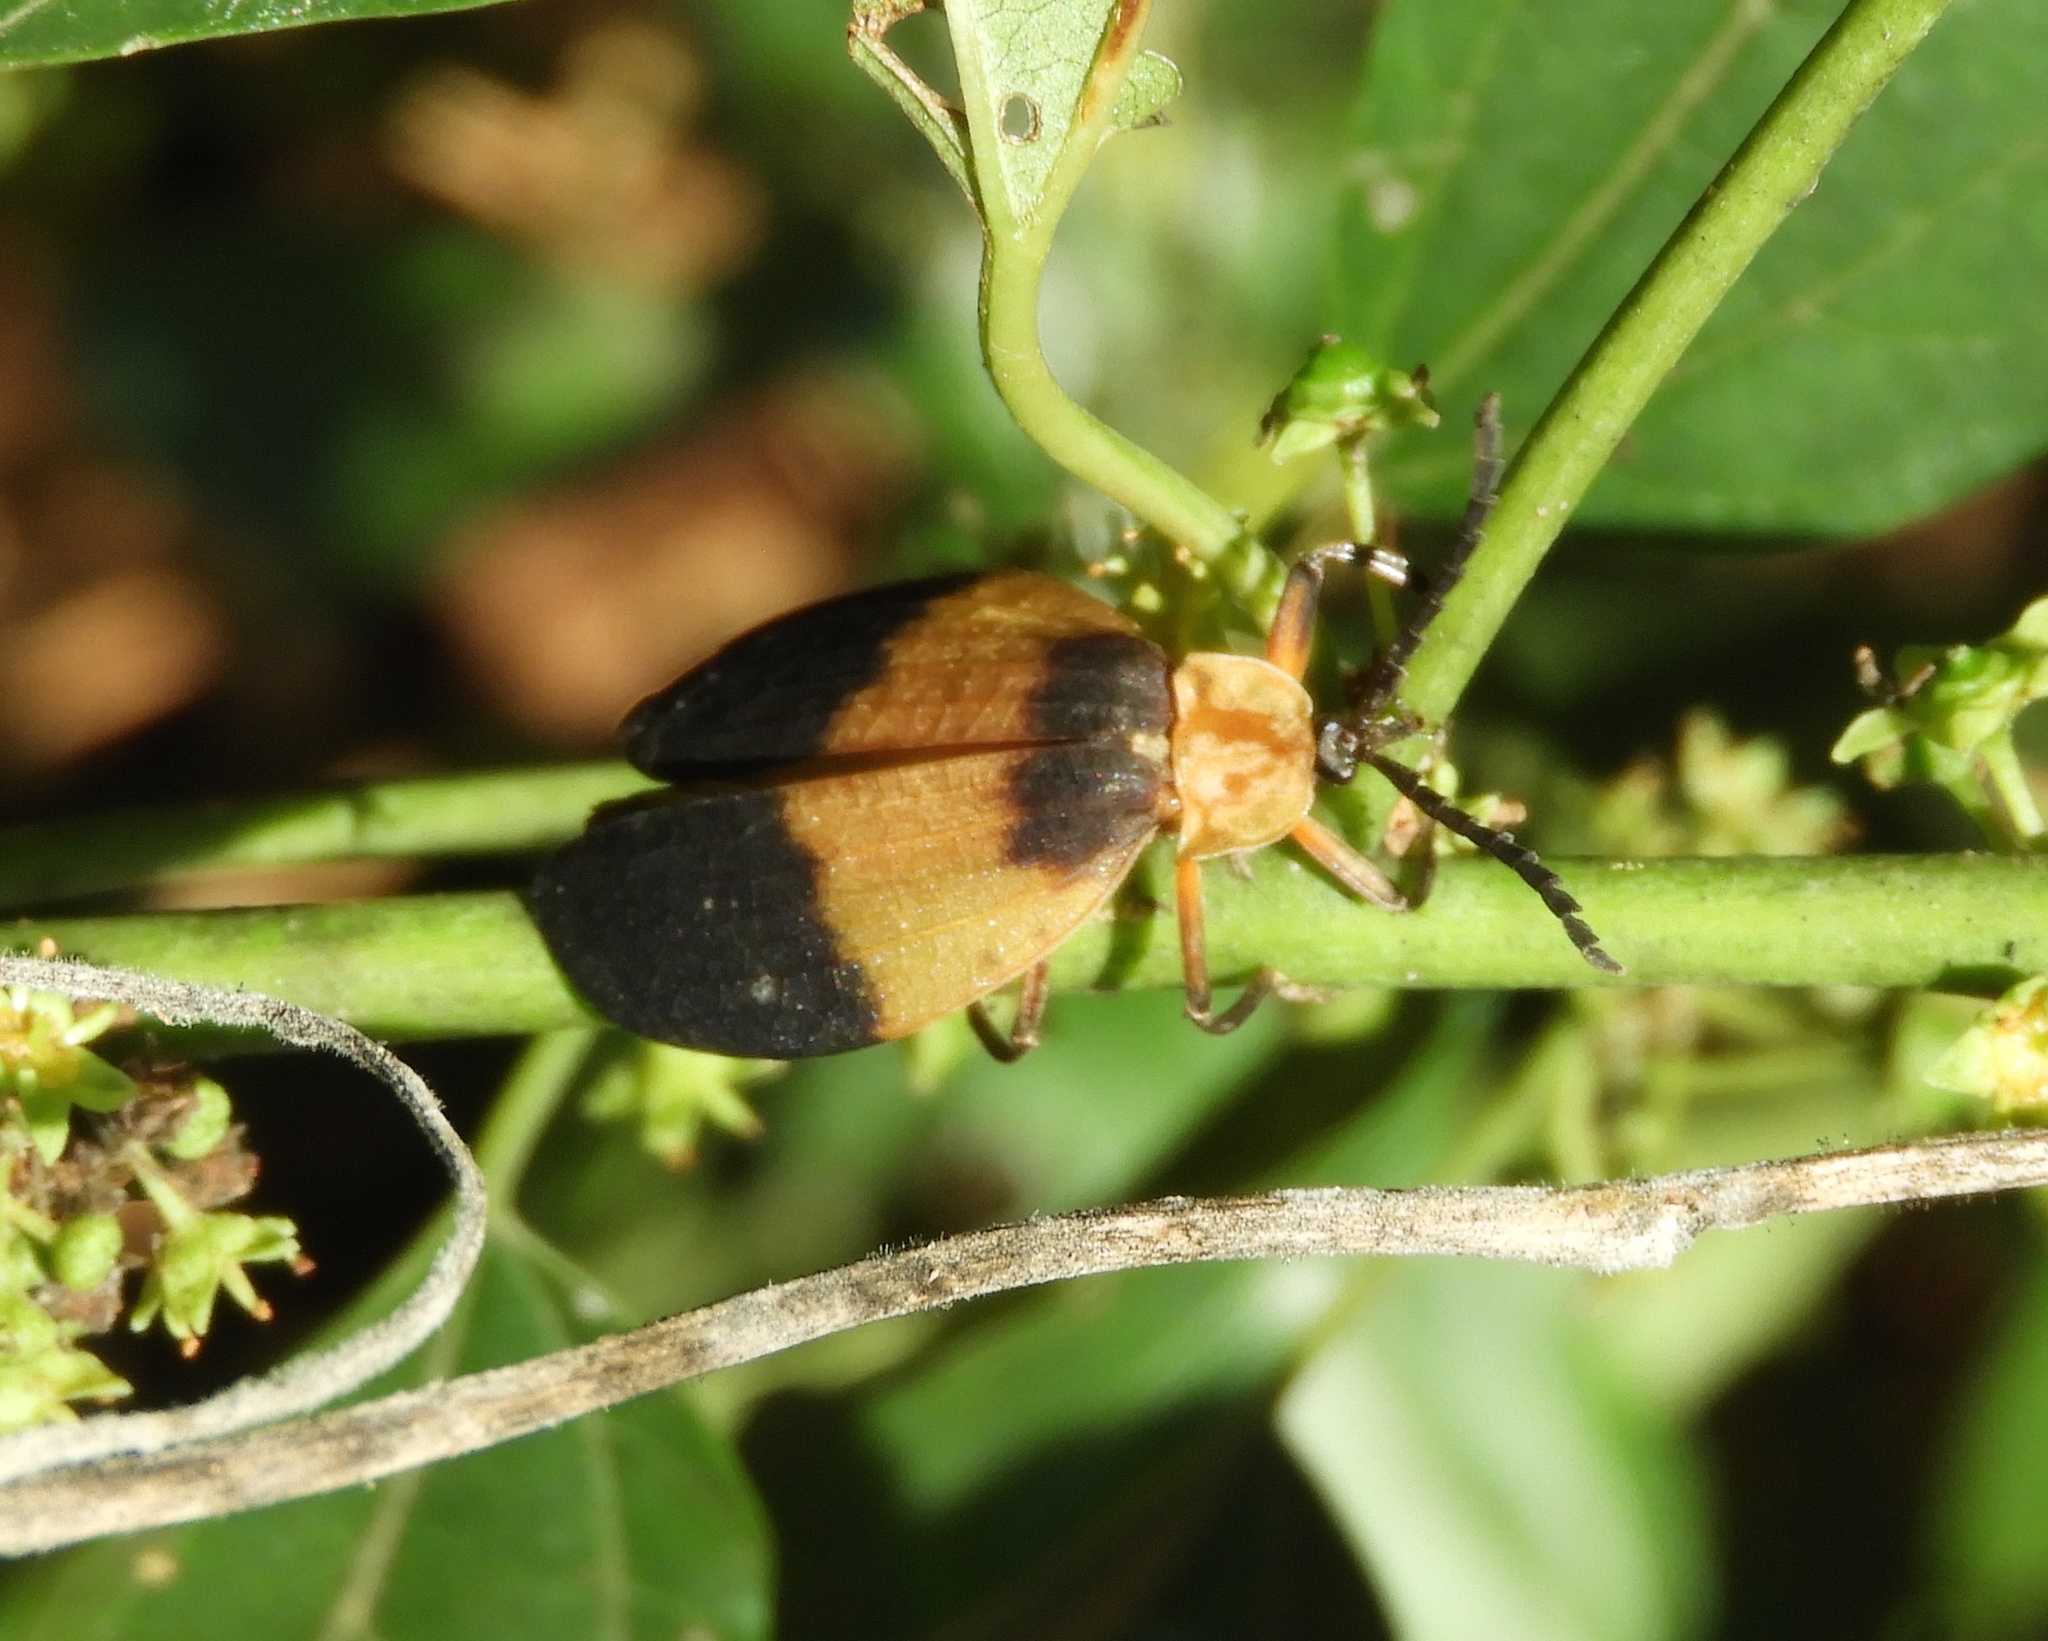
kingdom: Animalia
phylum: Arthropoda
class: Insecta
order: Coleoptera
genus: Neolycus
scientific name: Neolycus
